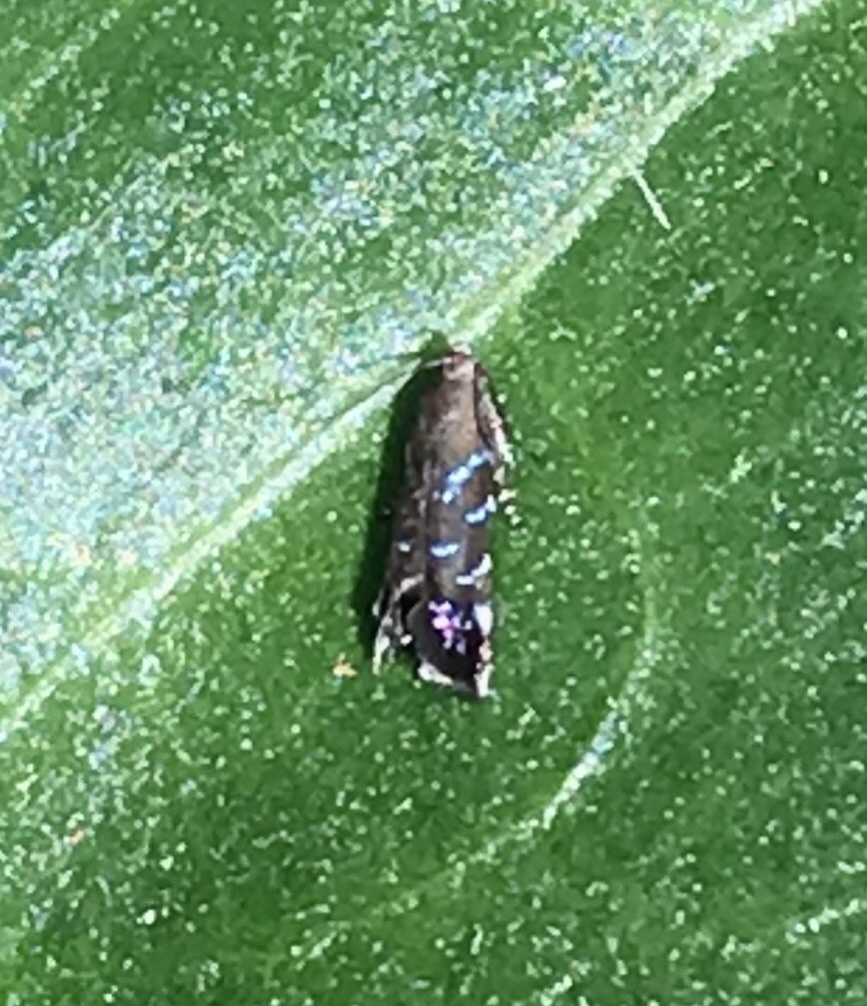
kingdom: Animalia
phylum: Arthropoda
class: Insecta
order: Lepidoptera
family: Gelechiidae
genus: Strobisia
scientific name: Strobisia proserpinella
